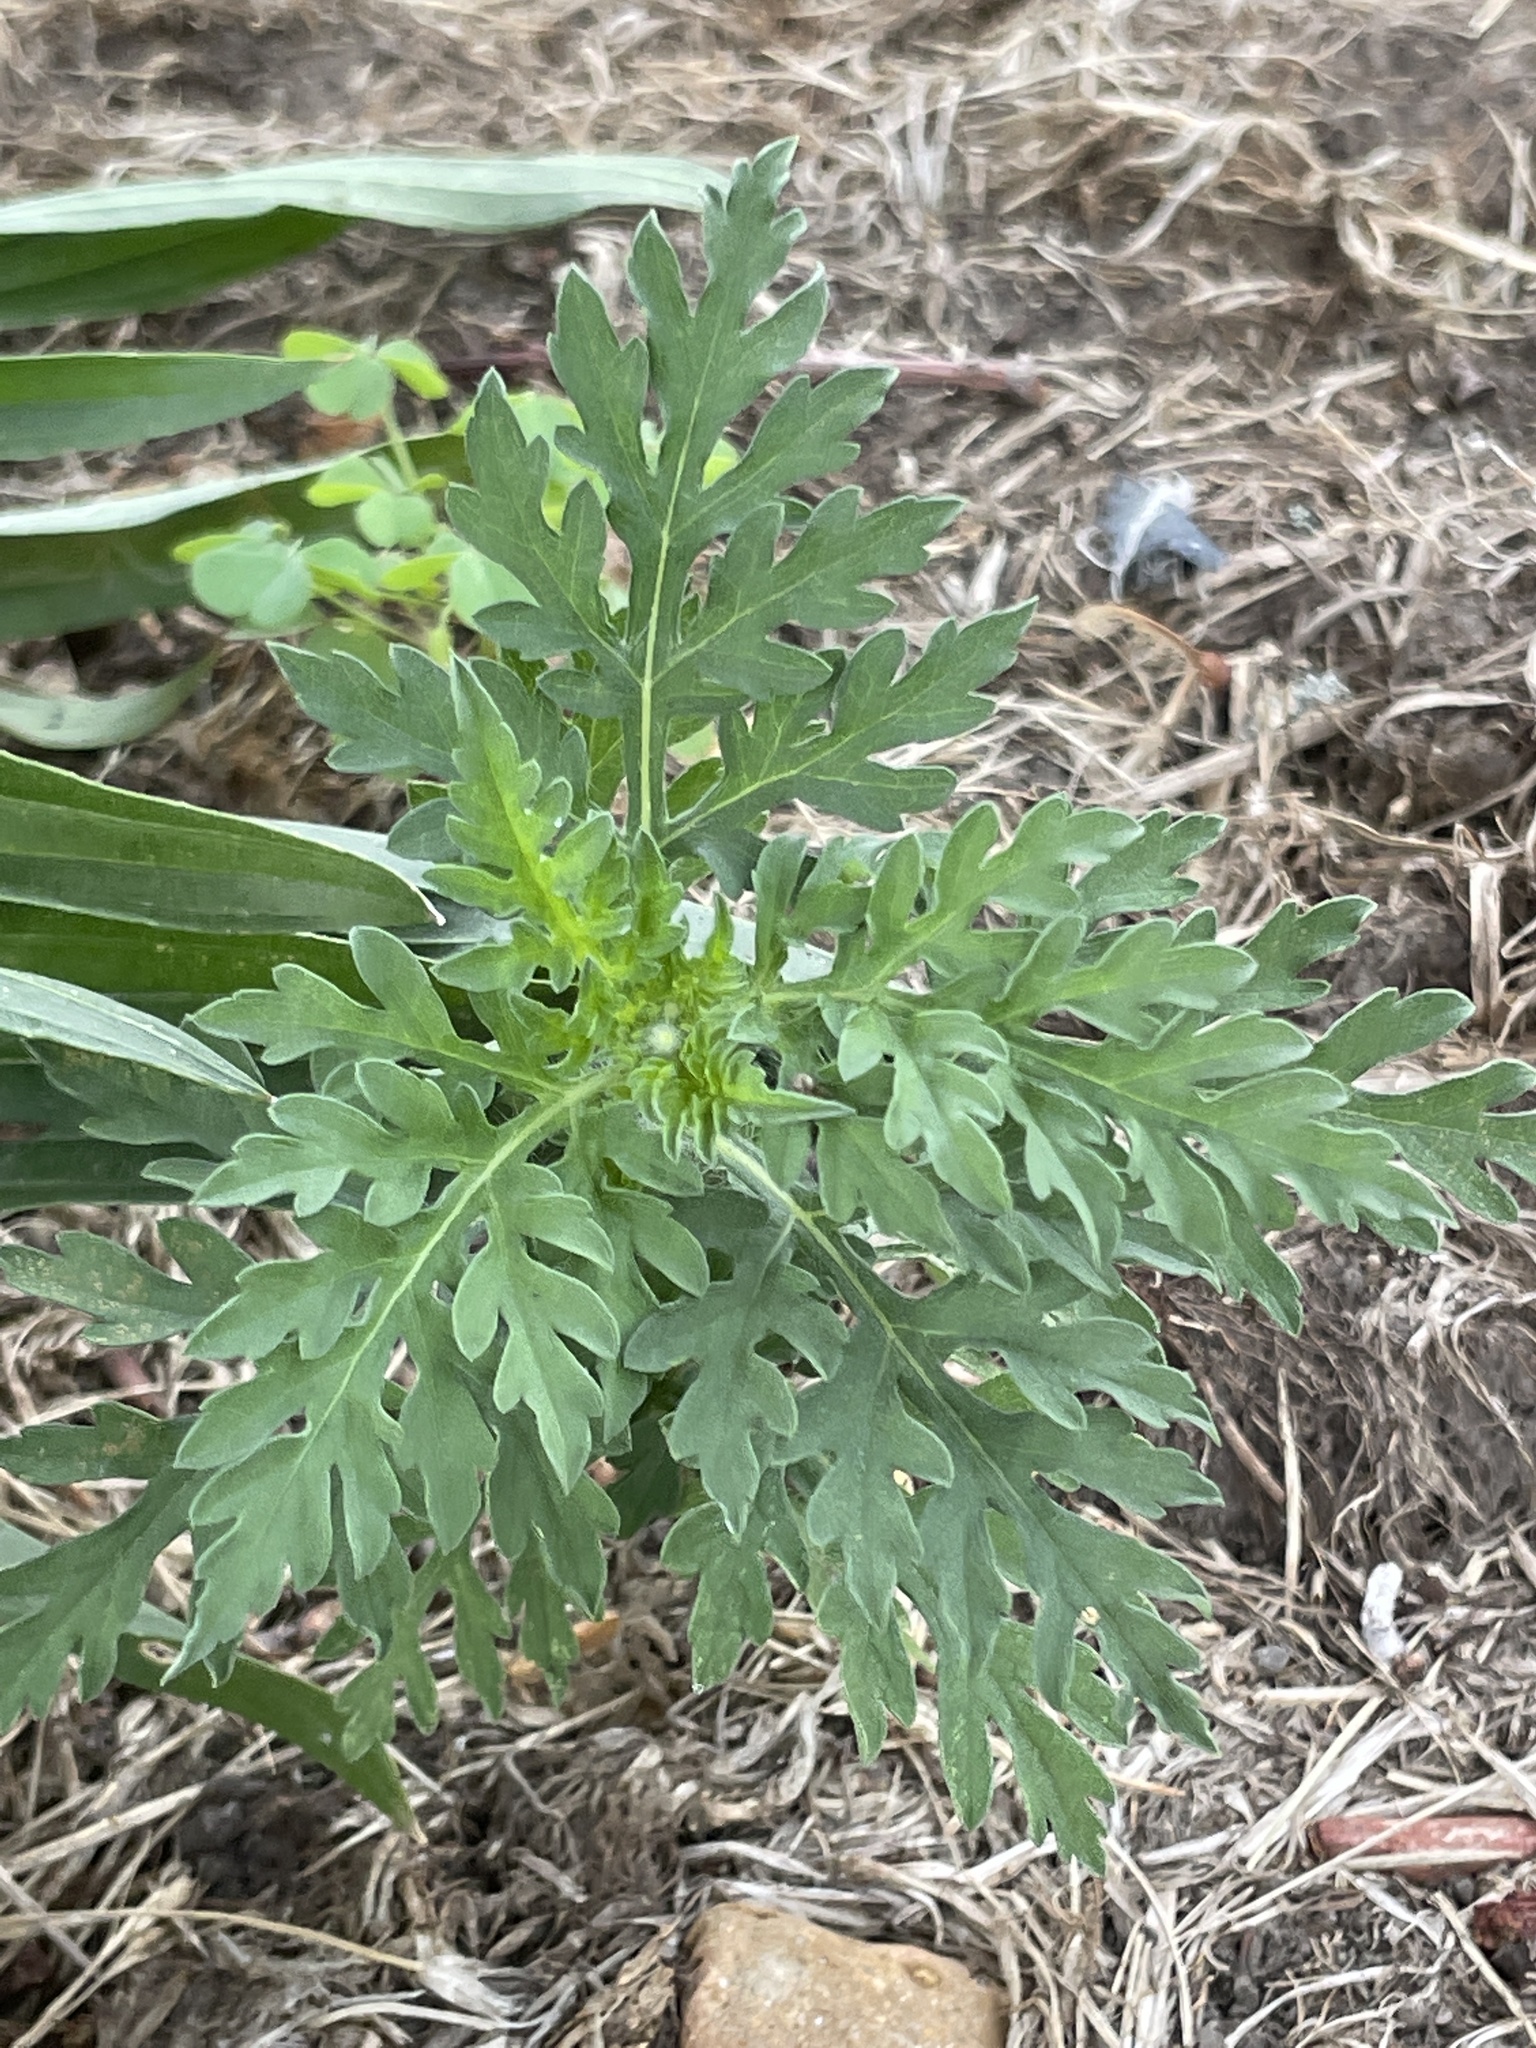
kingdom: Plantae
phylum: Tracheophyta
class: Magnoliopsida
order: Asterales
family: Asteraceae
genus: Ambrosia
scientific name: Ambrosia artemisiifolia
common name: Annual ragweed
